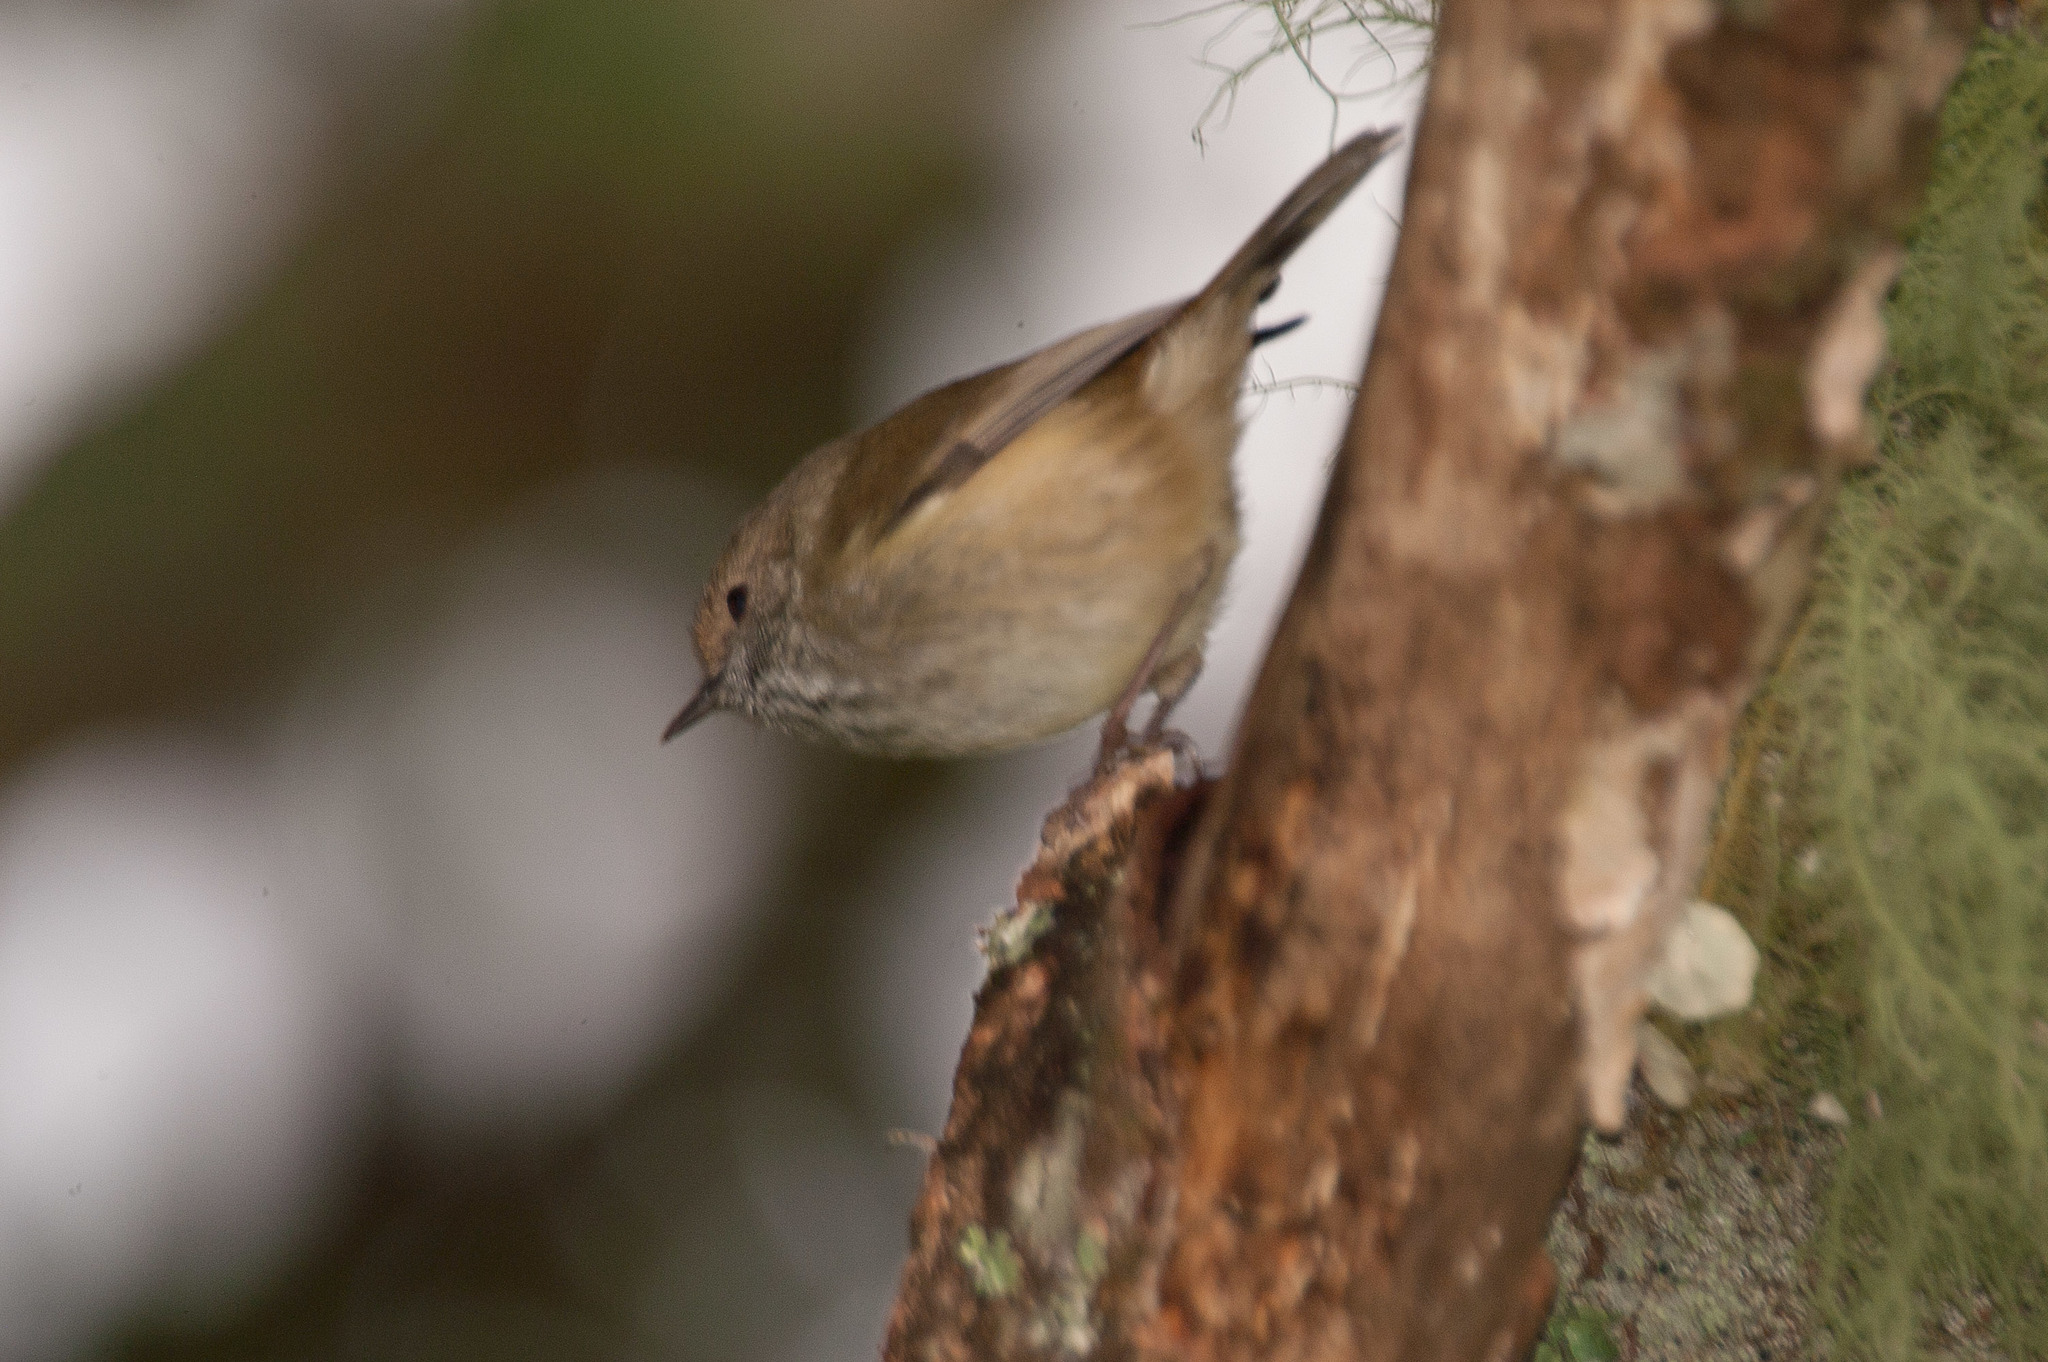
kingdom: Animalia
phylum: Chordata
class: Aves
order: Passeriformes
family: Acanthizidae
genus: Acanthiza
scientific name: Acanthiza pusilla
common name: Brown thornbill
